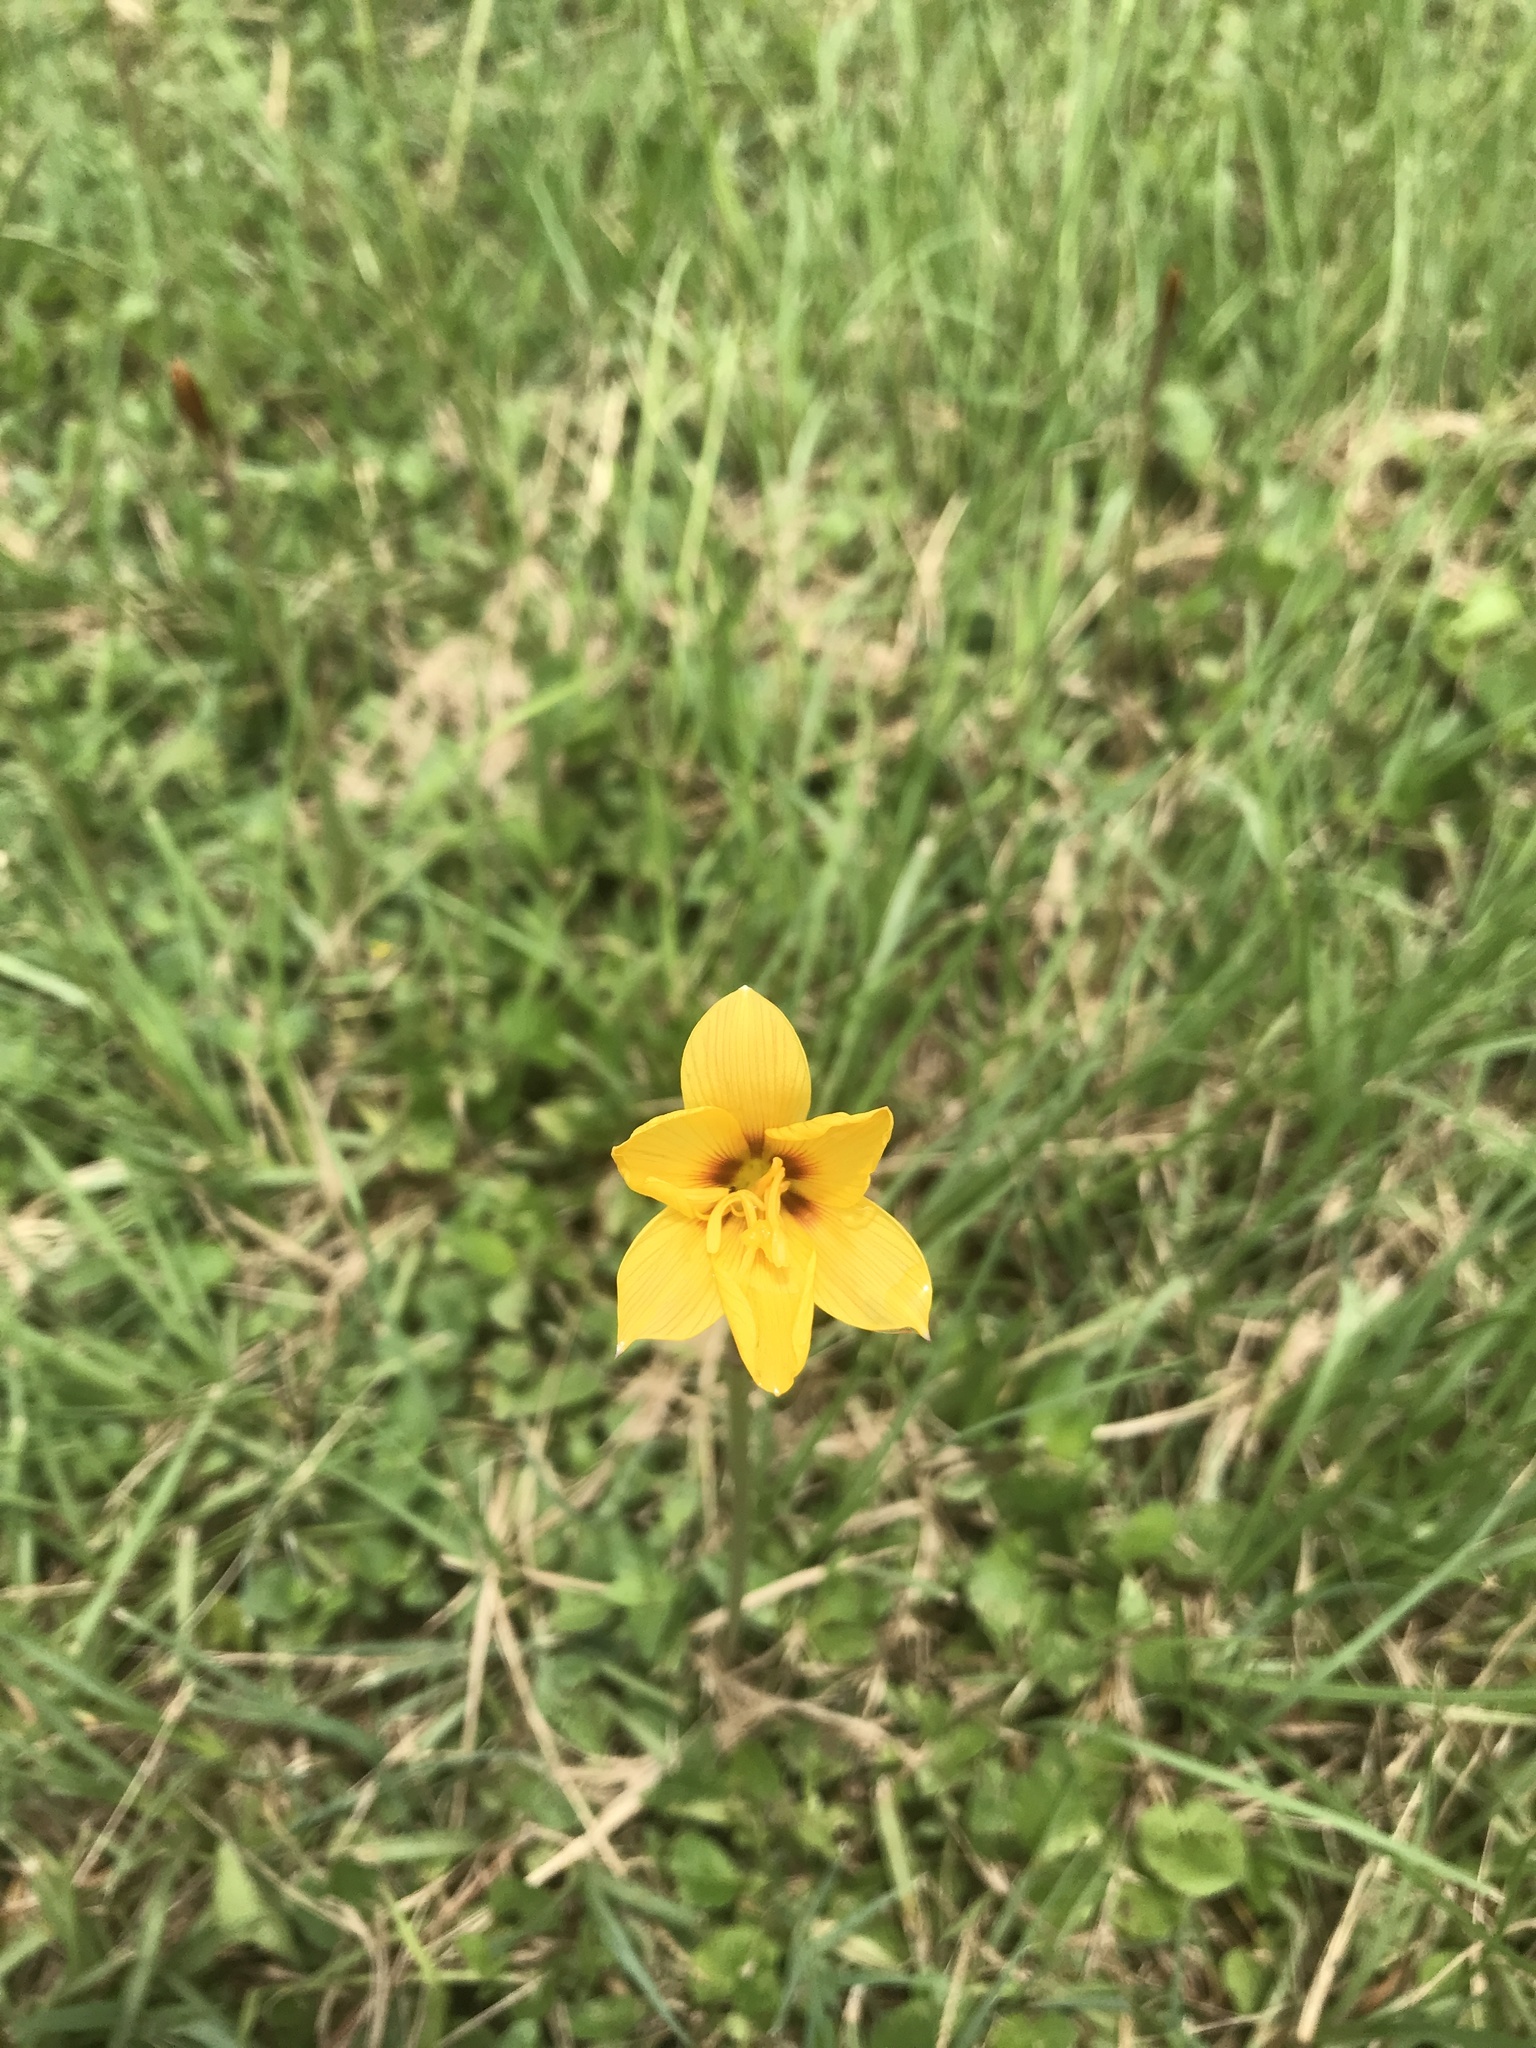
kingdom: Plantae
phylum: Tracheophyta
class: Liliopsida
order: Asparagales
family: Amaryllidaceae
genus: Zephyranthes
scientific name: Zephyranthes tubispatha
